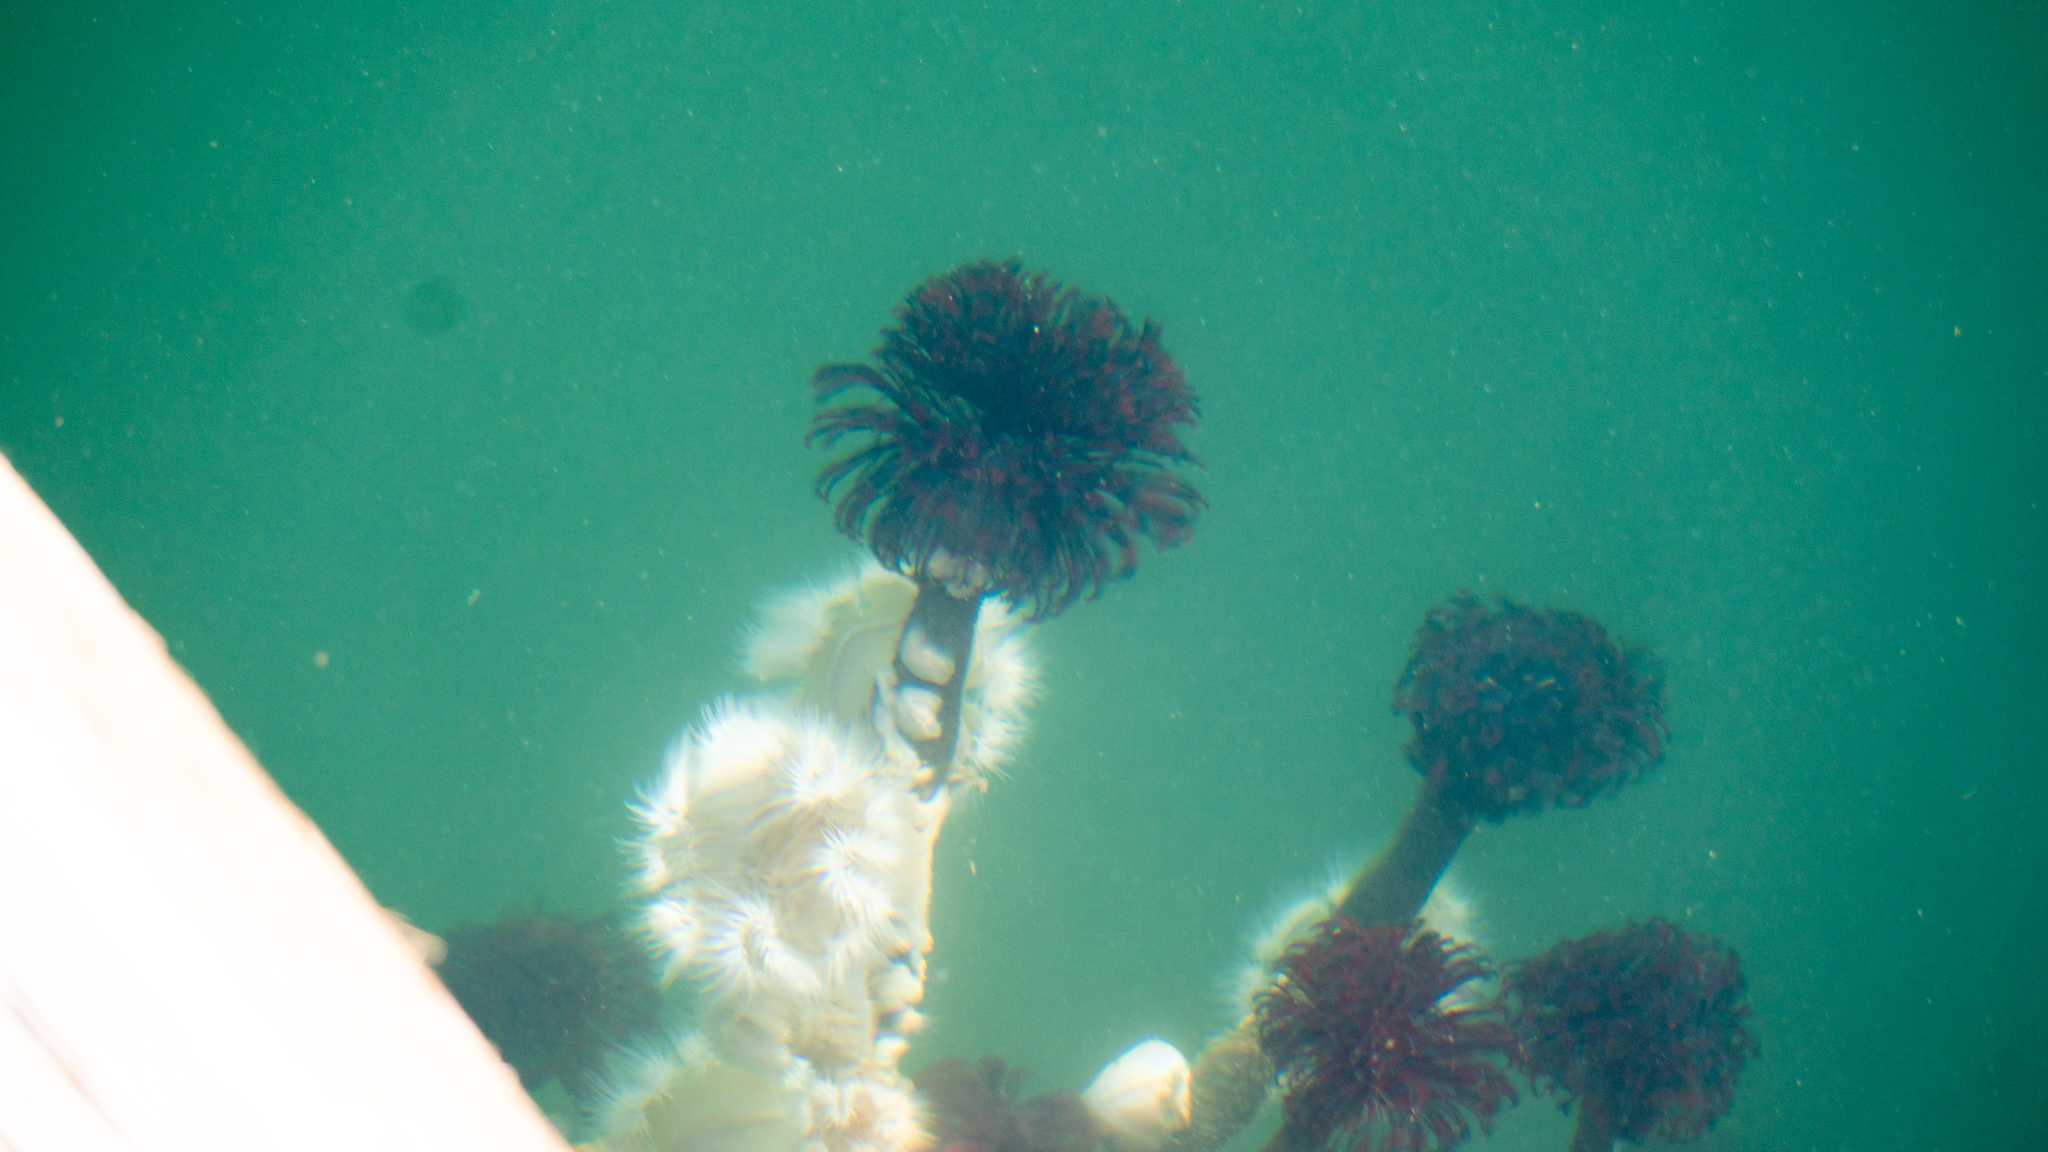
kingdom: Animalia
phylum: Annelida
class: Polychaeta
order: Sabellida
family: Sabellidae
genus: Eudistylia
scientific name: Eudistylia vancouveri
